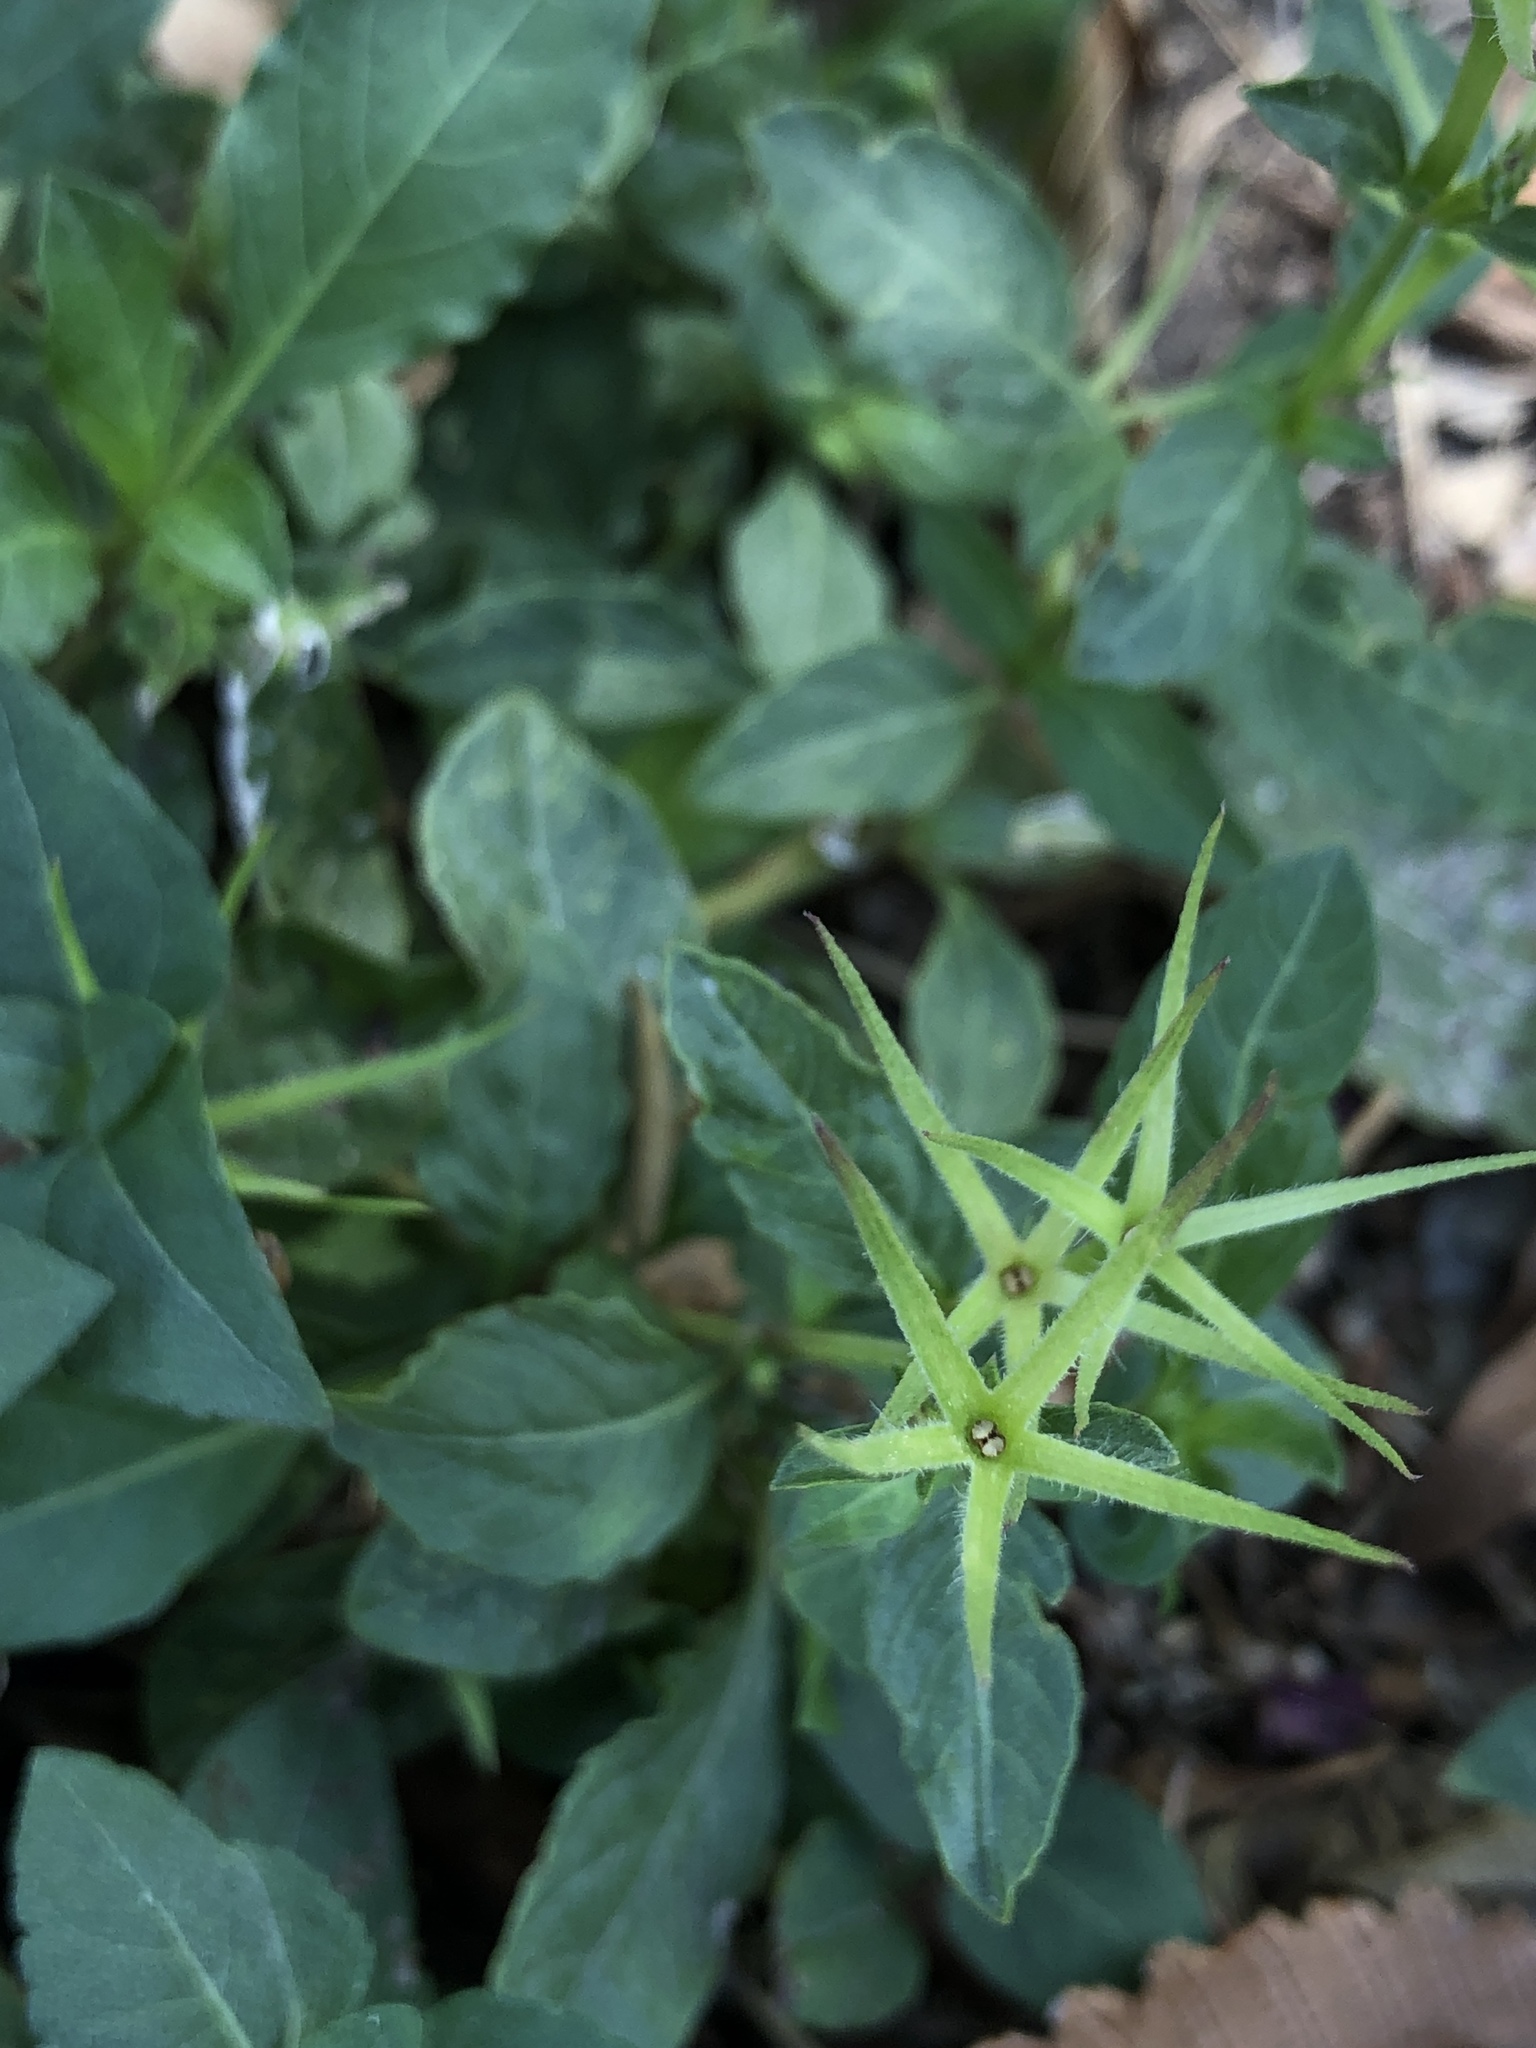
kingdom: Plantae
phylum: Tracheophyta
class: Magnoliopsida
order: Lamiales
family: Acanthaceae
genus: Ruellia
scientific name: Ruellia ciliatiflora
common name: Hairyflower wild petunia
